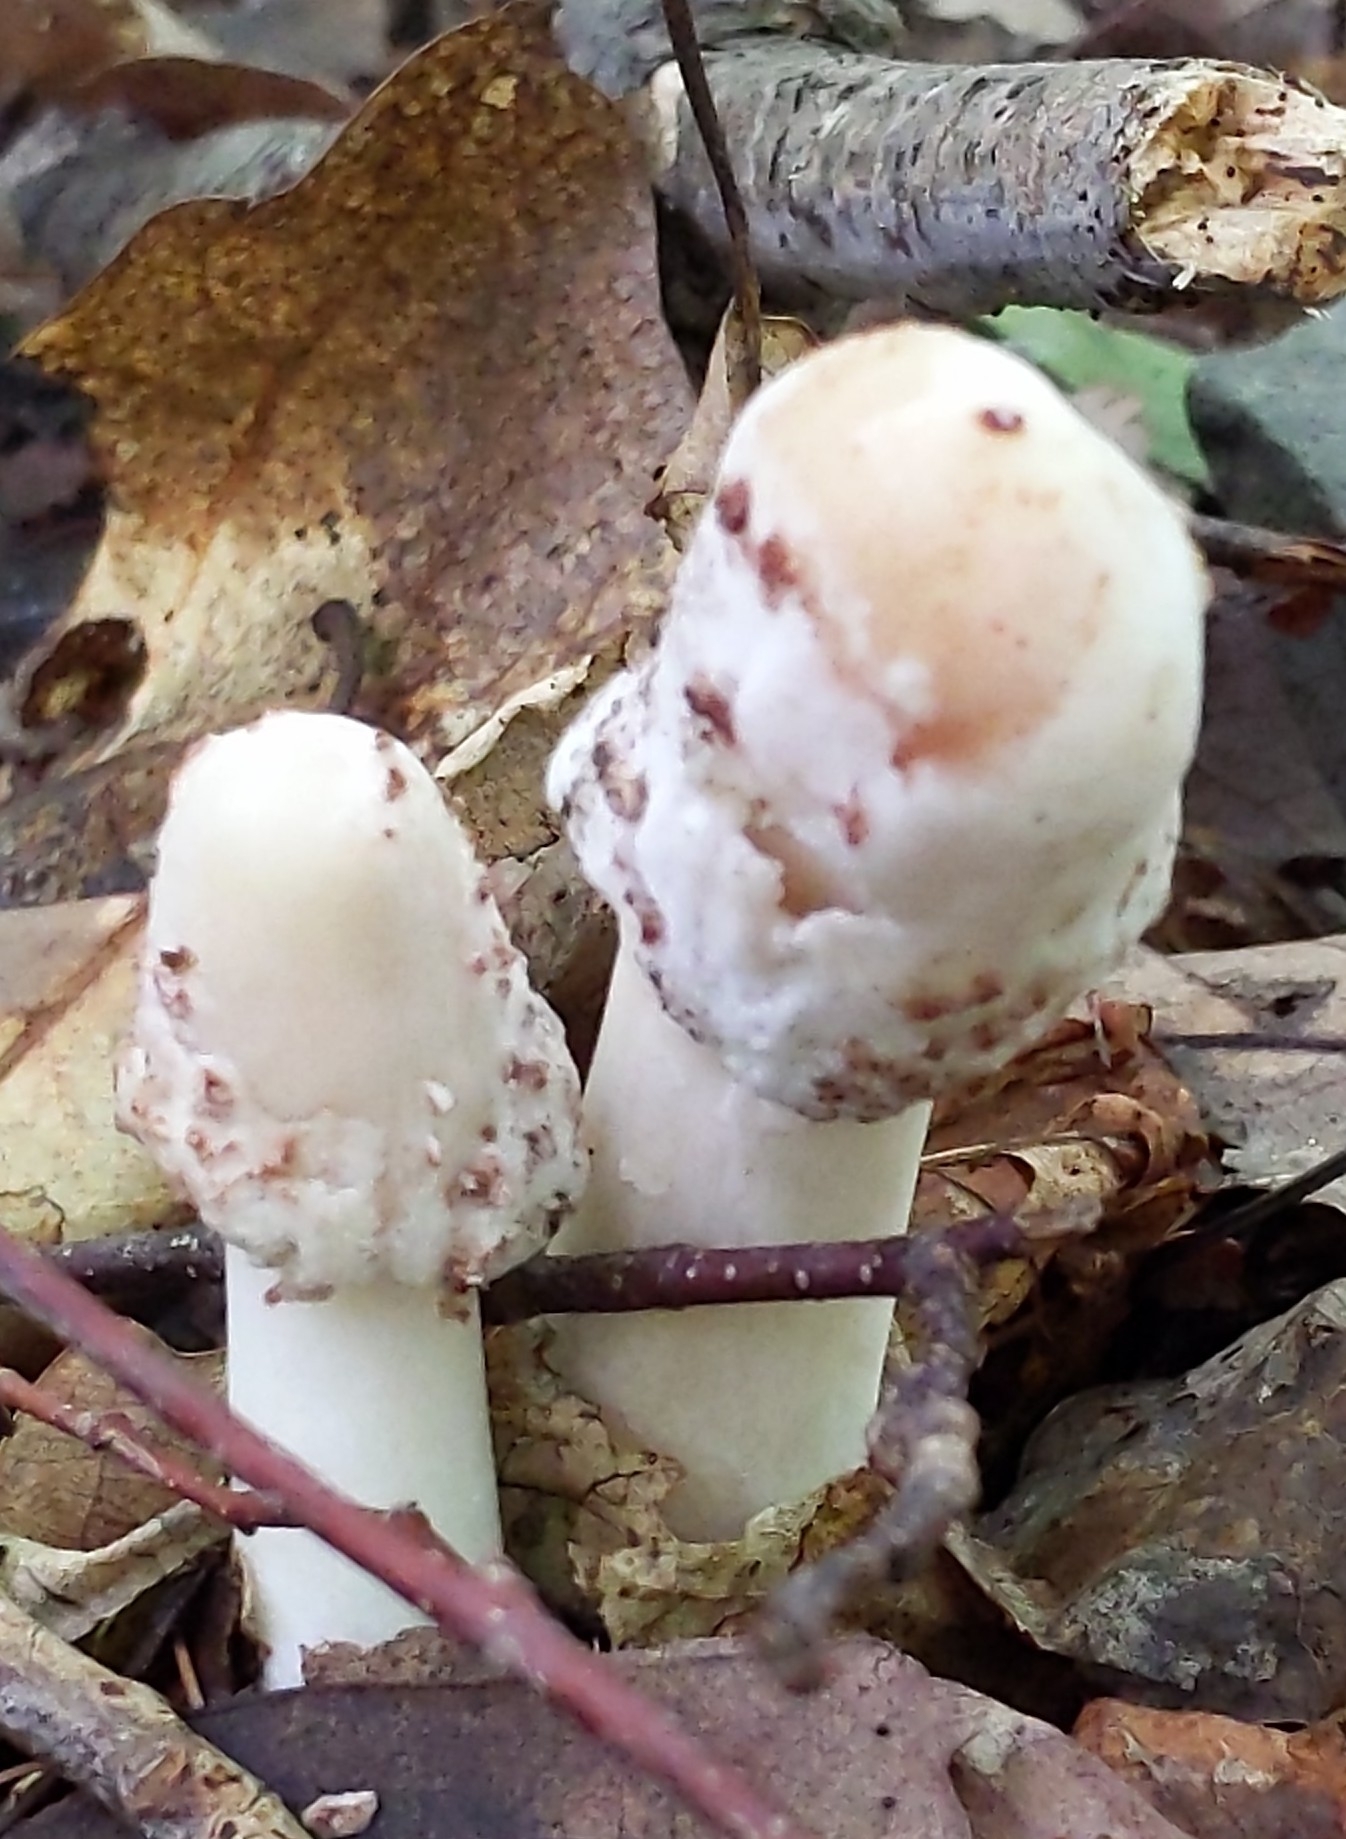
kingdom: Fungi
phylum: Basidiomycota
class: Agaricomycetes
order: Agaricales
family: Psathyrellaceae
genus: Coprinopsis
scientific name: Coprinopsis variegata
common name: Scaly ink cap
